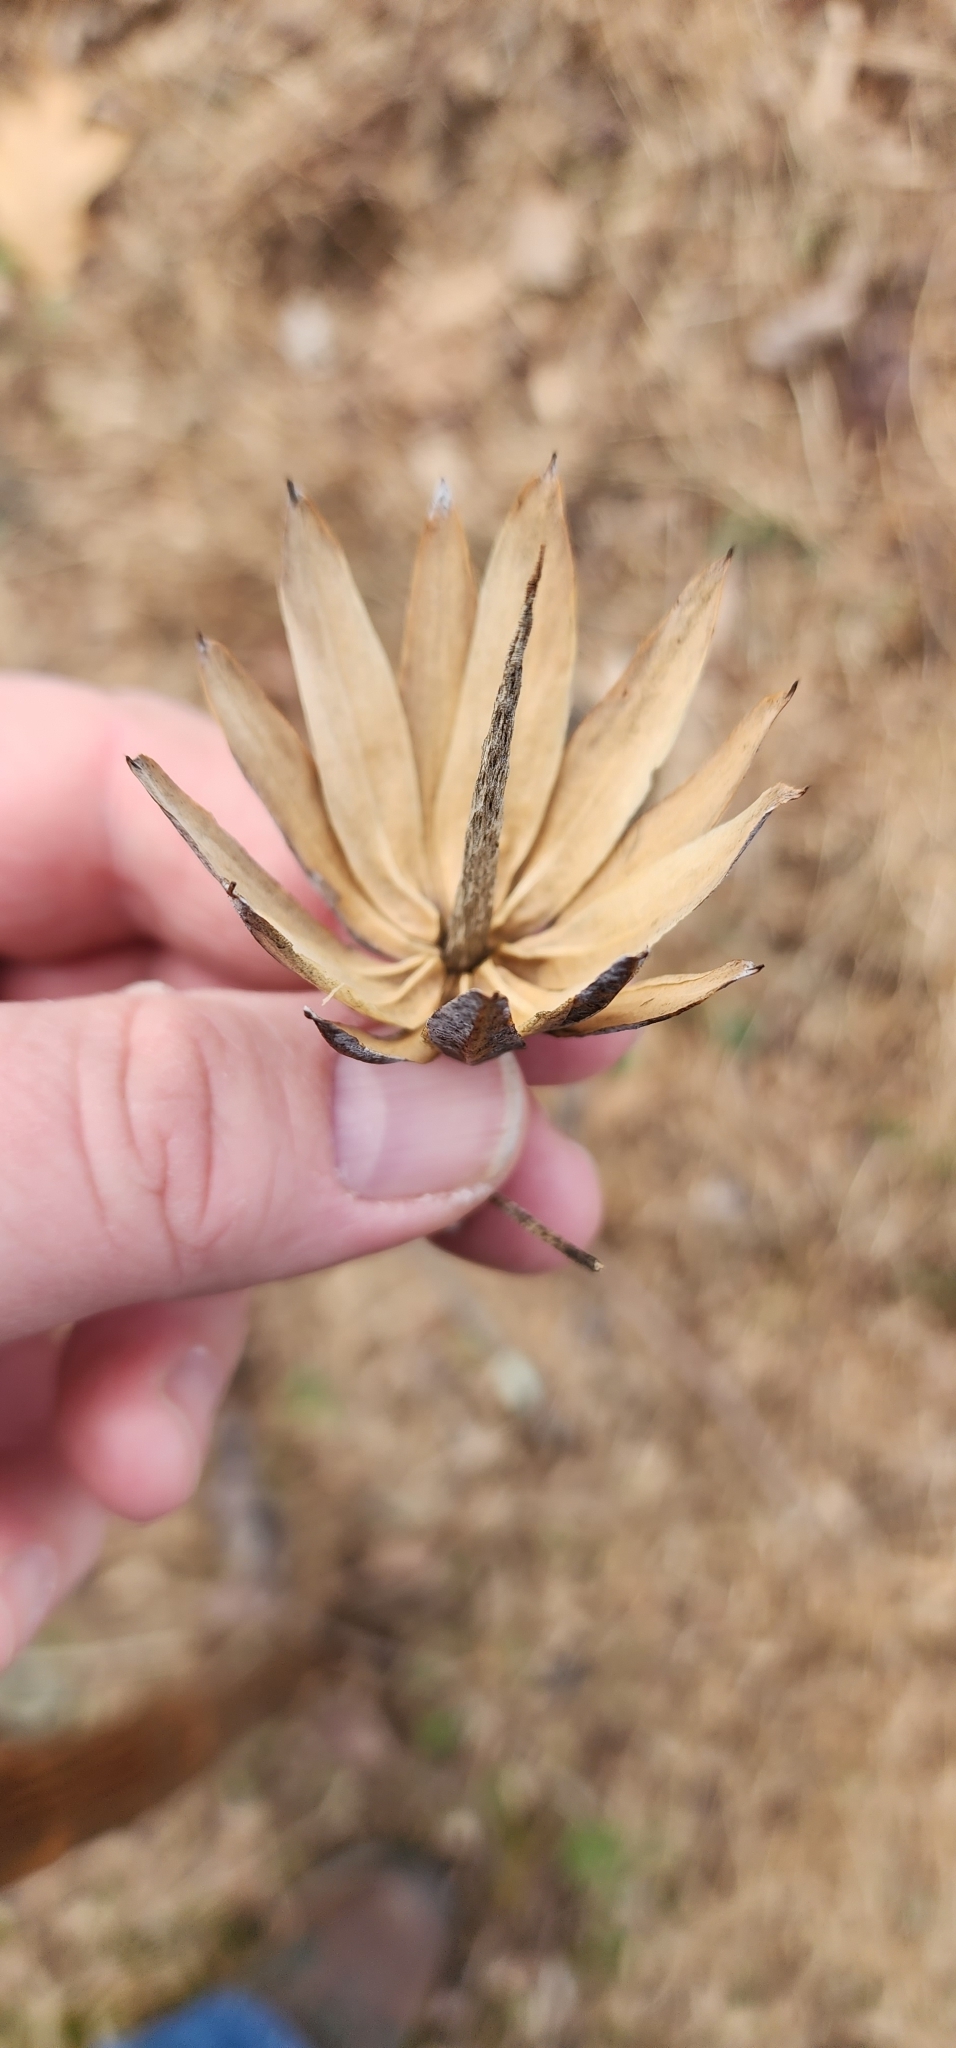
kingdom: Plantae
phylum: Tracheophyta
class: Magnoliopsida
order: Magnoliales
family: Magnoliaceae
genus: Liriodendron
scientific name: Liriodendron tulipifera
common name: Tulip tree
